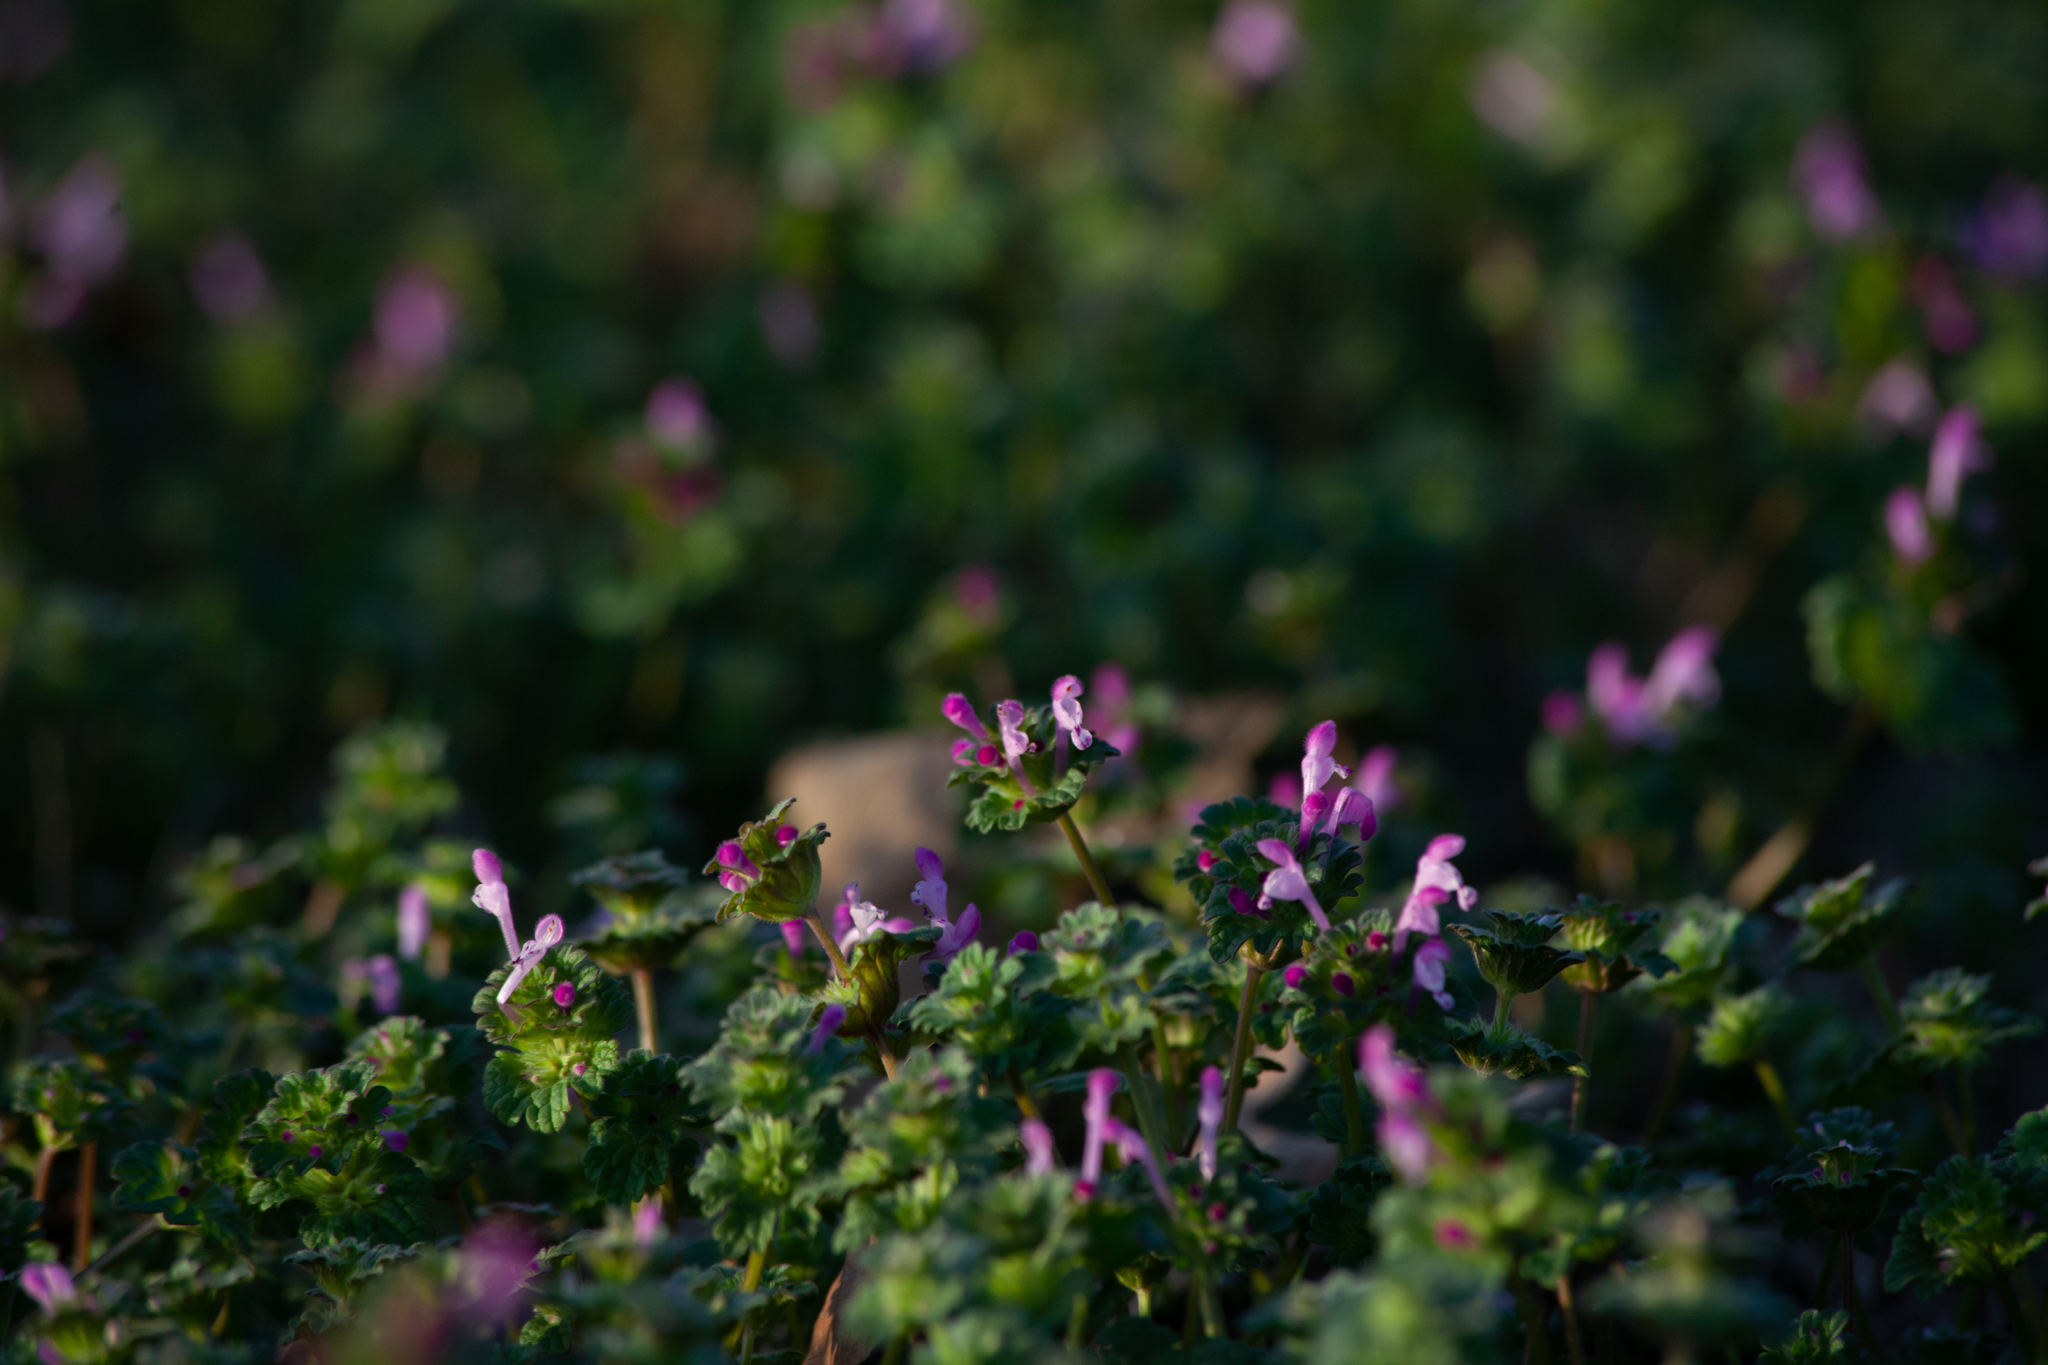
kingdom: Plantae
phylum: Tracheophyta
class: Magnoliopsida
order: Lamiales
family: Lamiaceae
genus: Lamium
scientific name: Lamium amplexicaule
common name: Henbit dead-nettle
